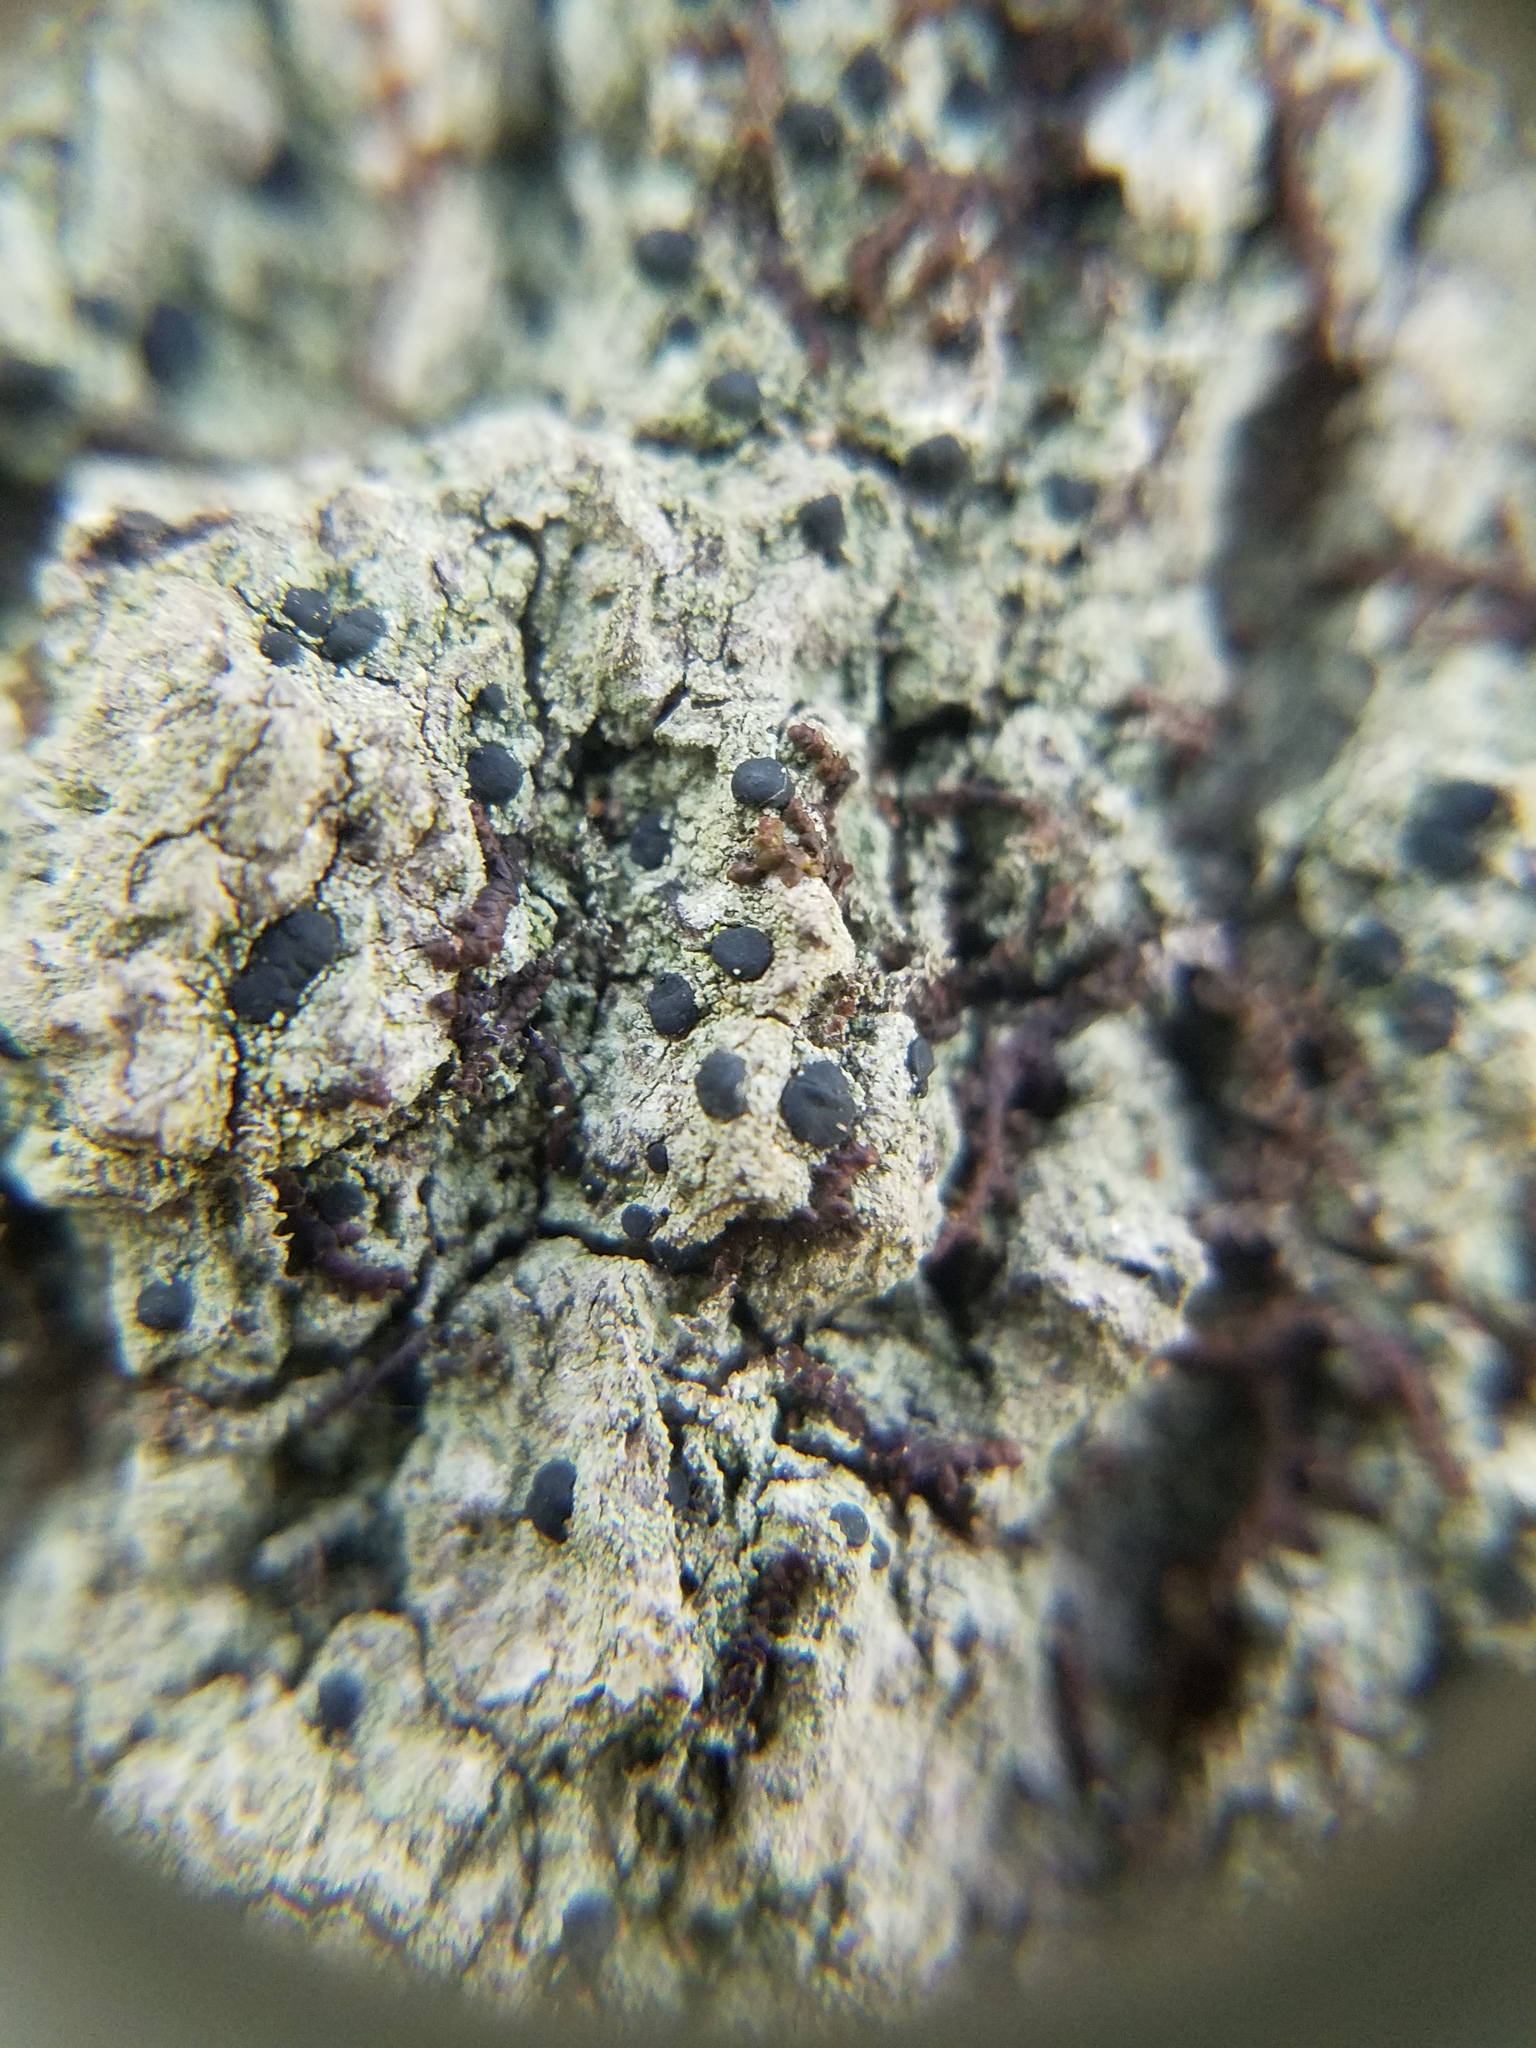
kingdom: Fungi
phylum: Ascomycota
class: Lecanoromycetes
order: Lecanorales
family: Ramalinaceae
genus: Bacidia
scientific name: Bacidia schweinitzii
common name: Surprise lichen
